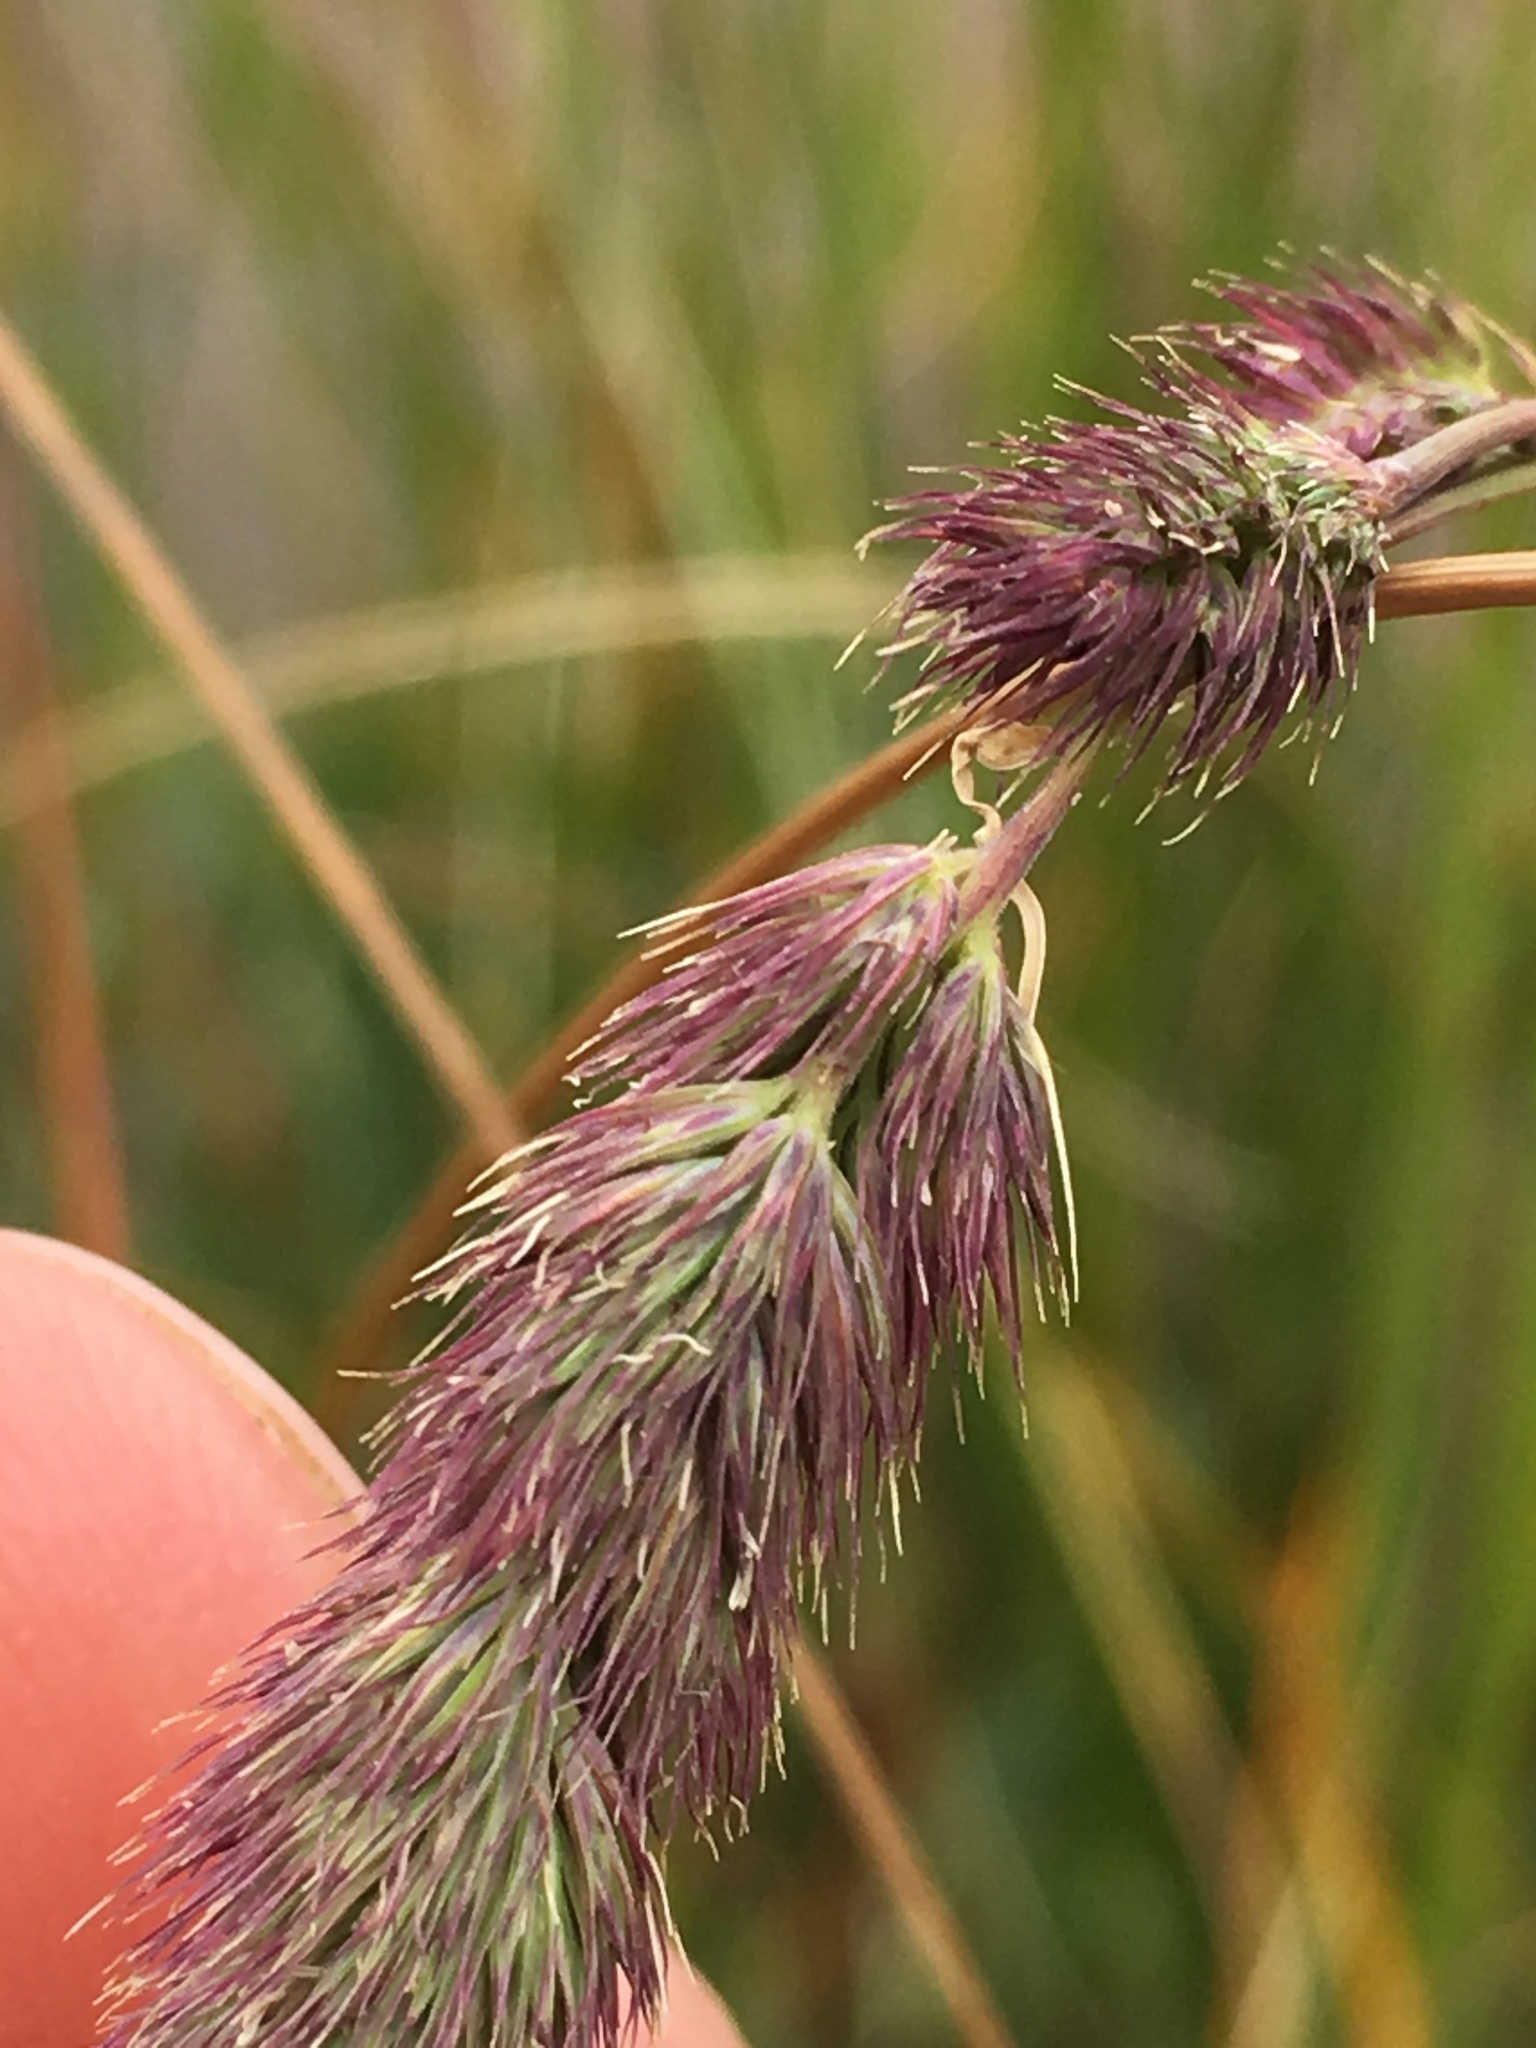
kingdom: Plantae
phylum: Tracheophyta
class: Liliopsida
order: Poales
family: Poaceae
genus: Muhlenbergia
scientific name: Muhlenbergia glomerata
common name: Bog muhly
